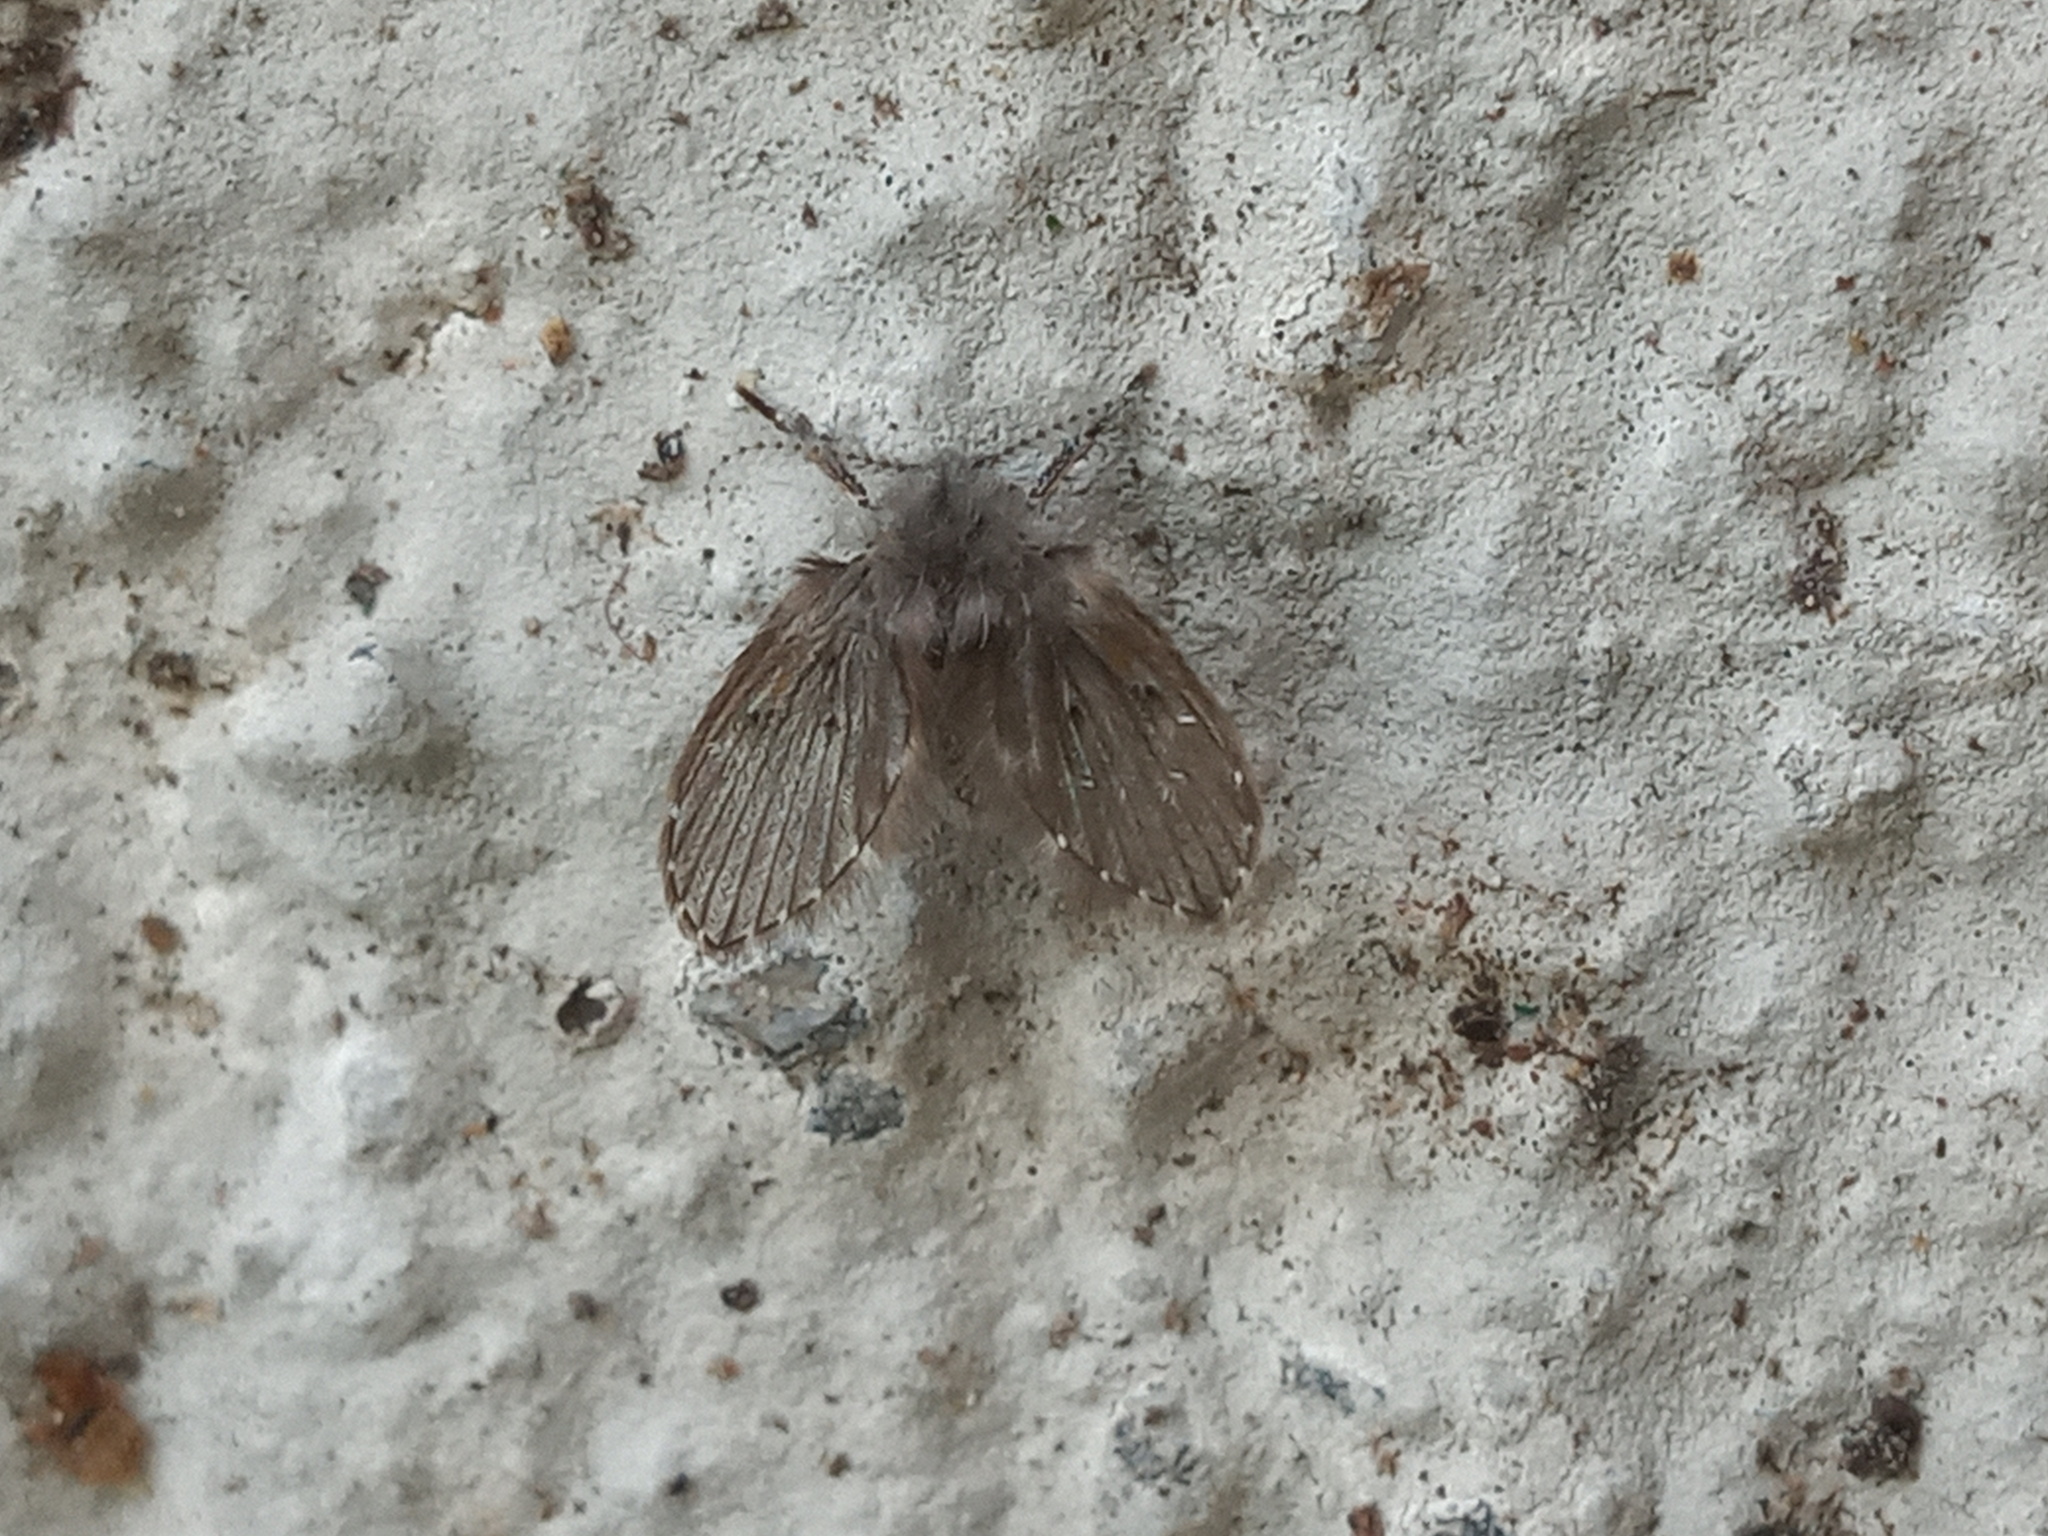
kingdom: Animalia
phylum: Arthropoda
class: Insecta
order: Diptera
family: Psychodidae
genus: Clogmia
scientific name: Clogmia albipunctatus
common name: White-spotted moth fly
